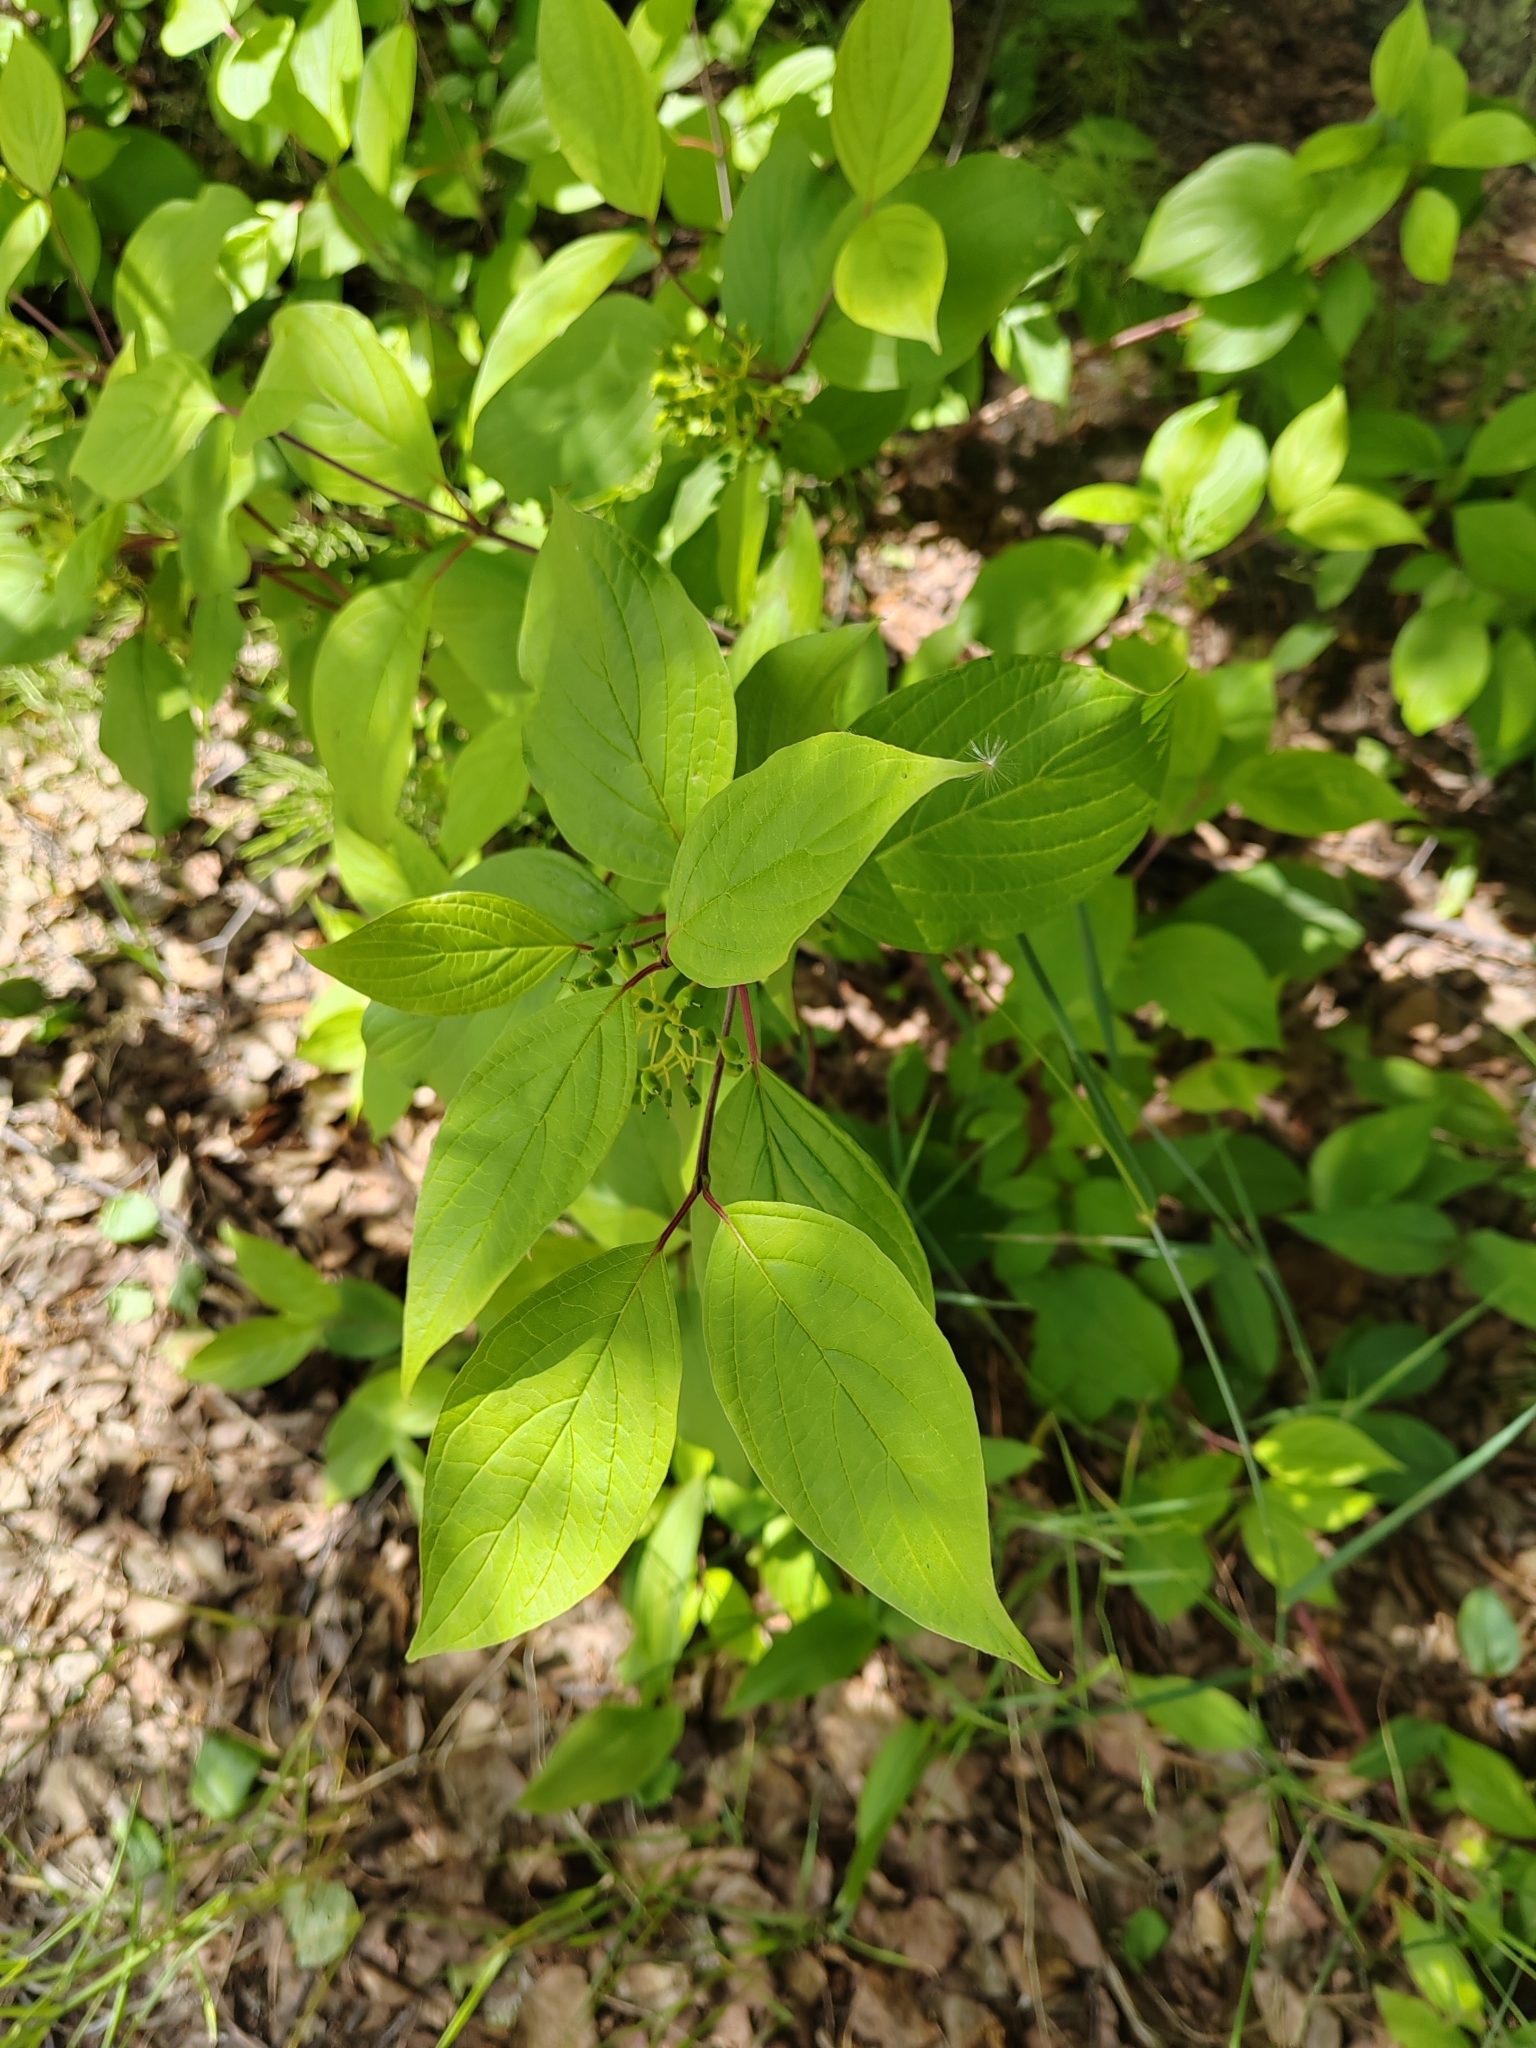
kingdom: Plantae
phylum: Tracheophyta
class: Magnoliopsida
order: Cornales
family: Cornaceae
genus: Cornus
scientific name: Cornus alba
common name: White dogwood
